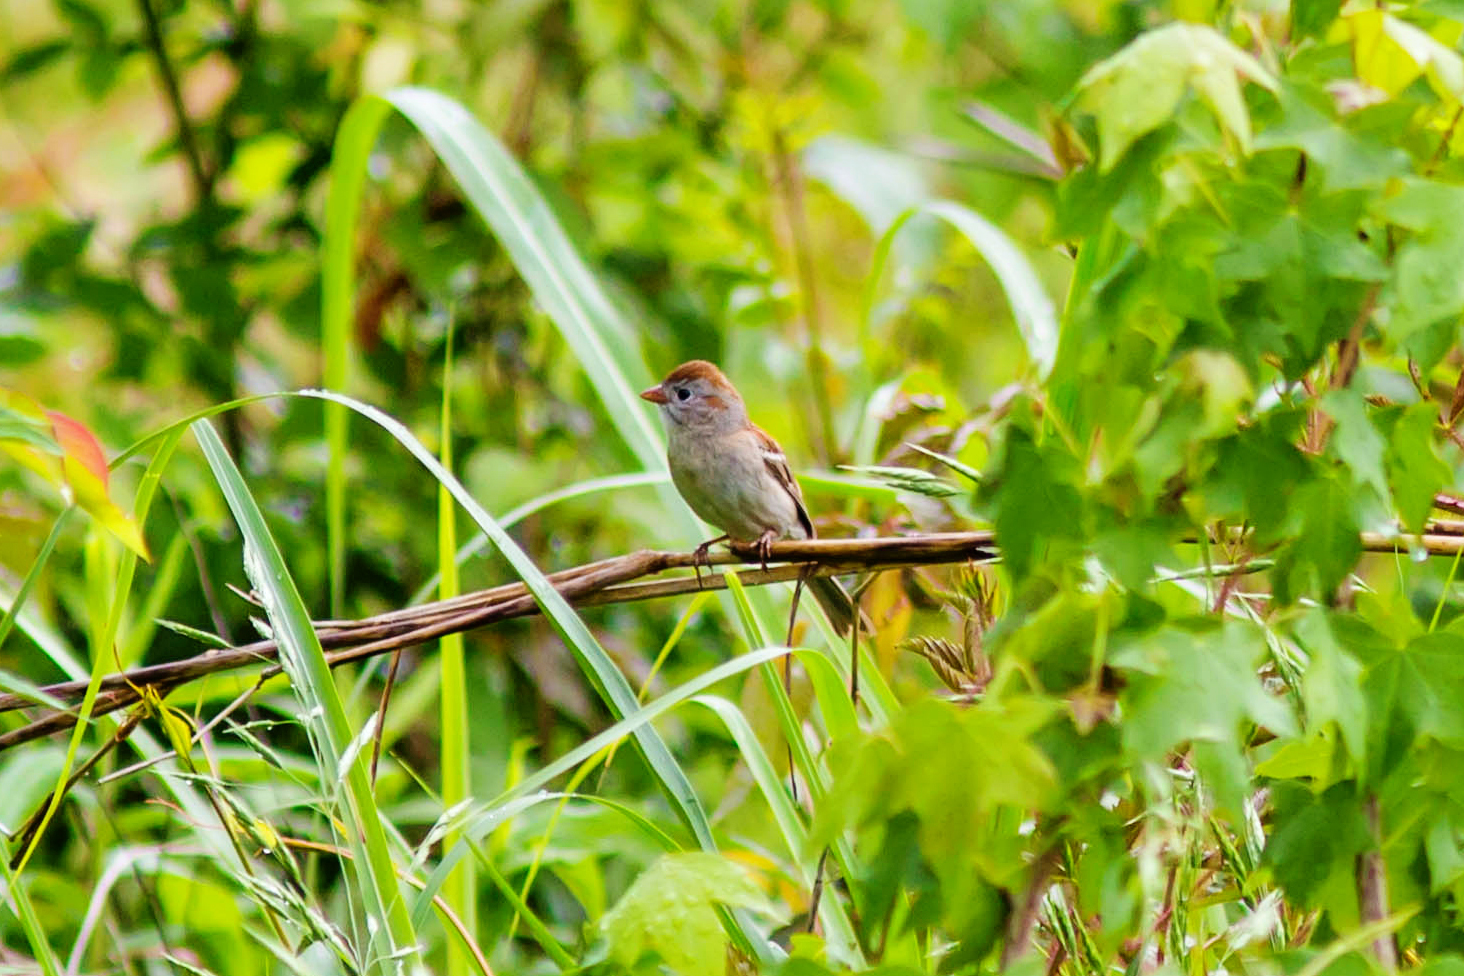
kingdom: Animalia
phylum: Chordata
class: Aves
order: Passeriformes
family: Passerellidae
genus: Spizella
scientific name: Spizella pusilla
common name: Field sparrow
